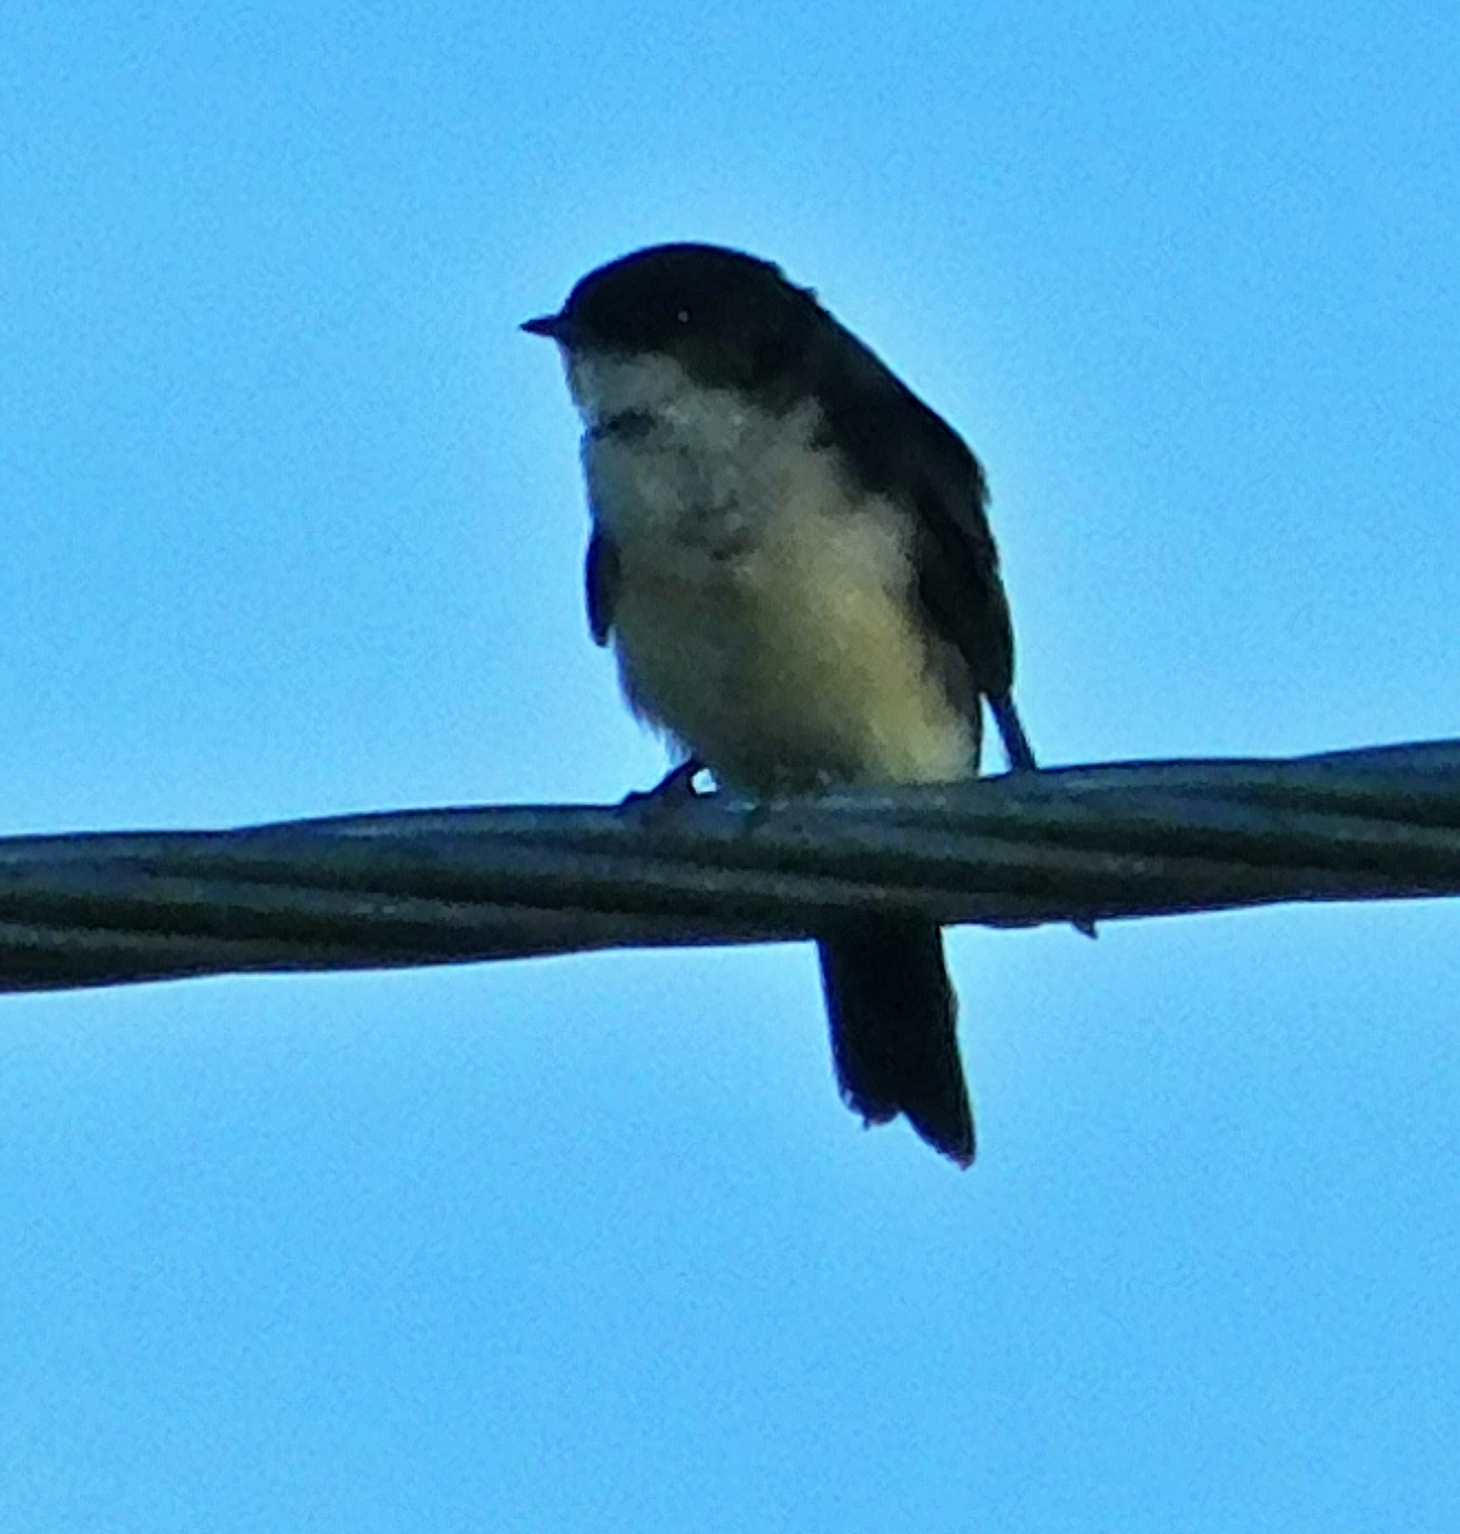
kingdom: Animalia
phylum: Chordata
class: Aves
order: Passeriformes
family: Hirundinidae
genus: Notiochelidon
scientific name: Notiochelidon cyanoleuca
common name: Blue-and-white swallow
